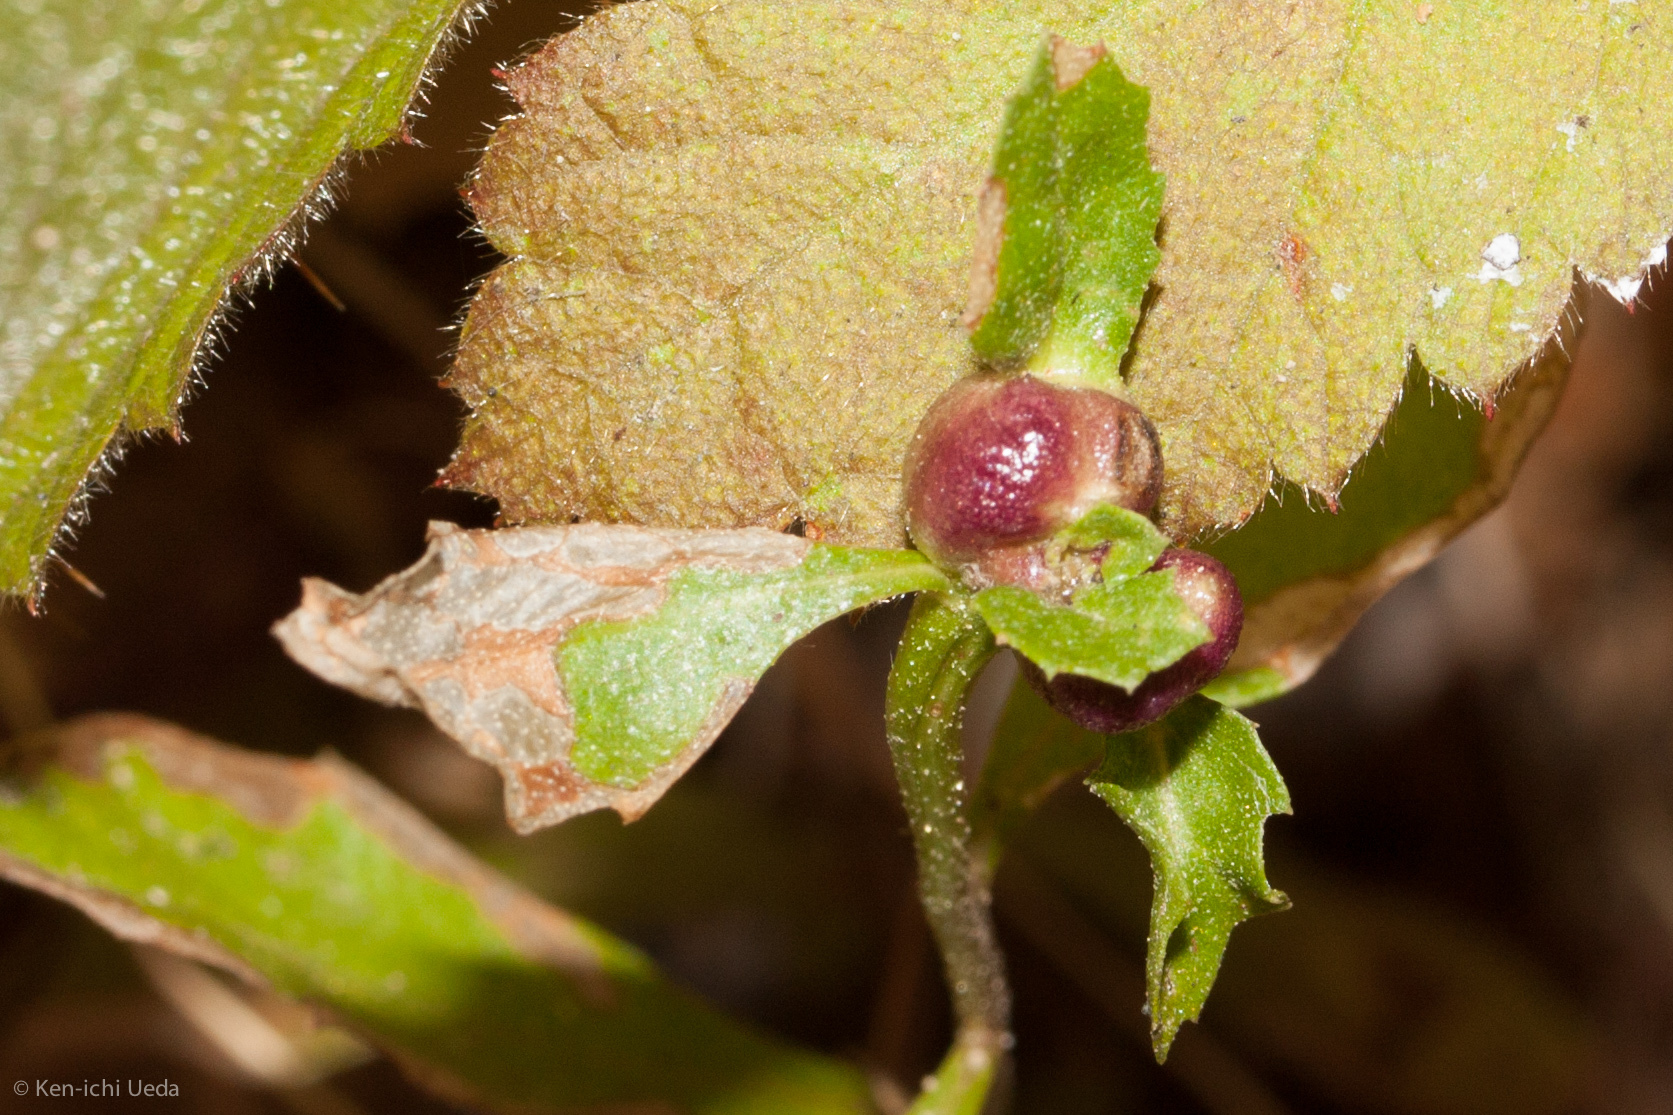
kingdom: Animalia
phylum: Arthropoda
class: Insecta
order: Diptera
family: Cecidomyiidae
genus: Rhopalomyia
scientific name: Rhopalomyia californica
